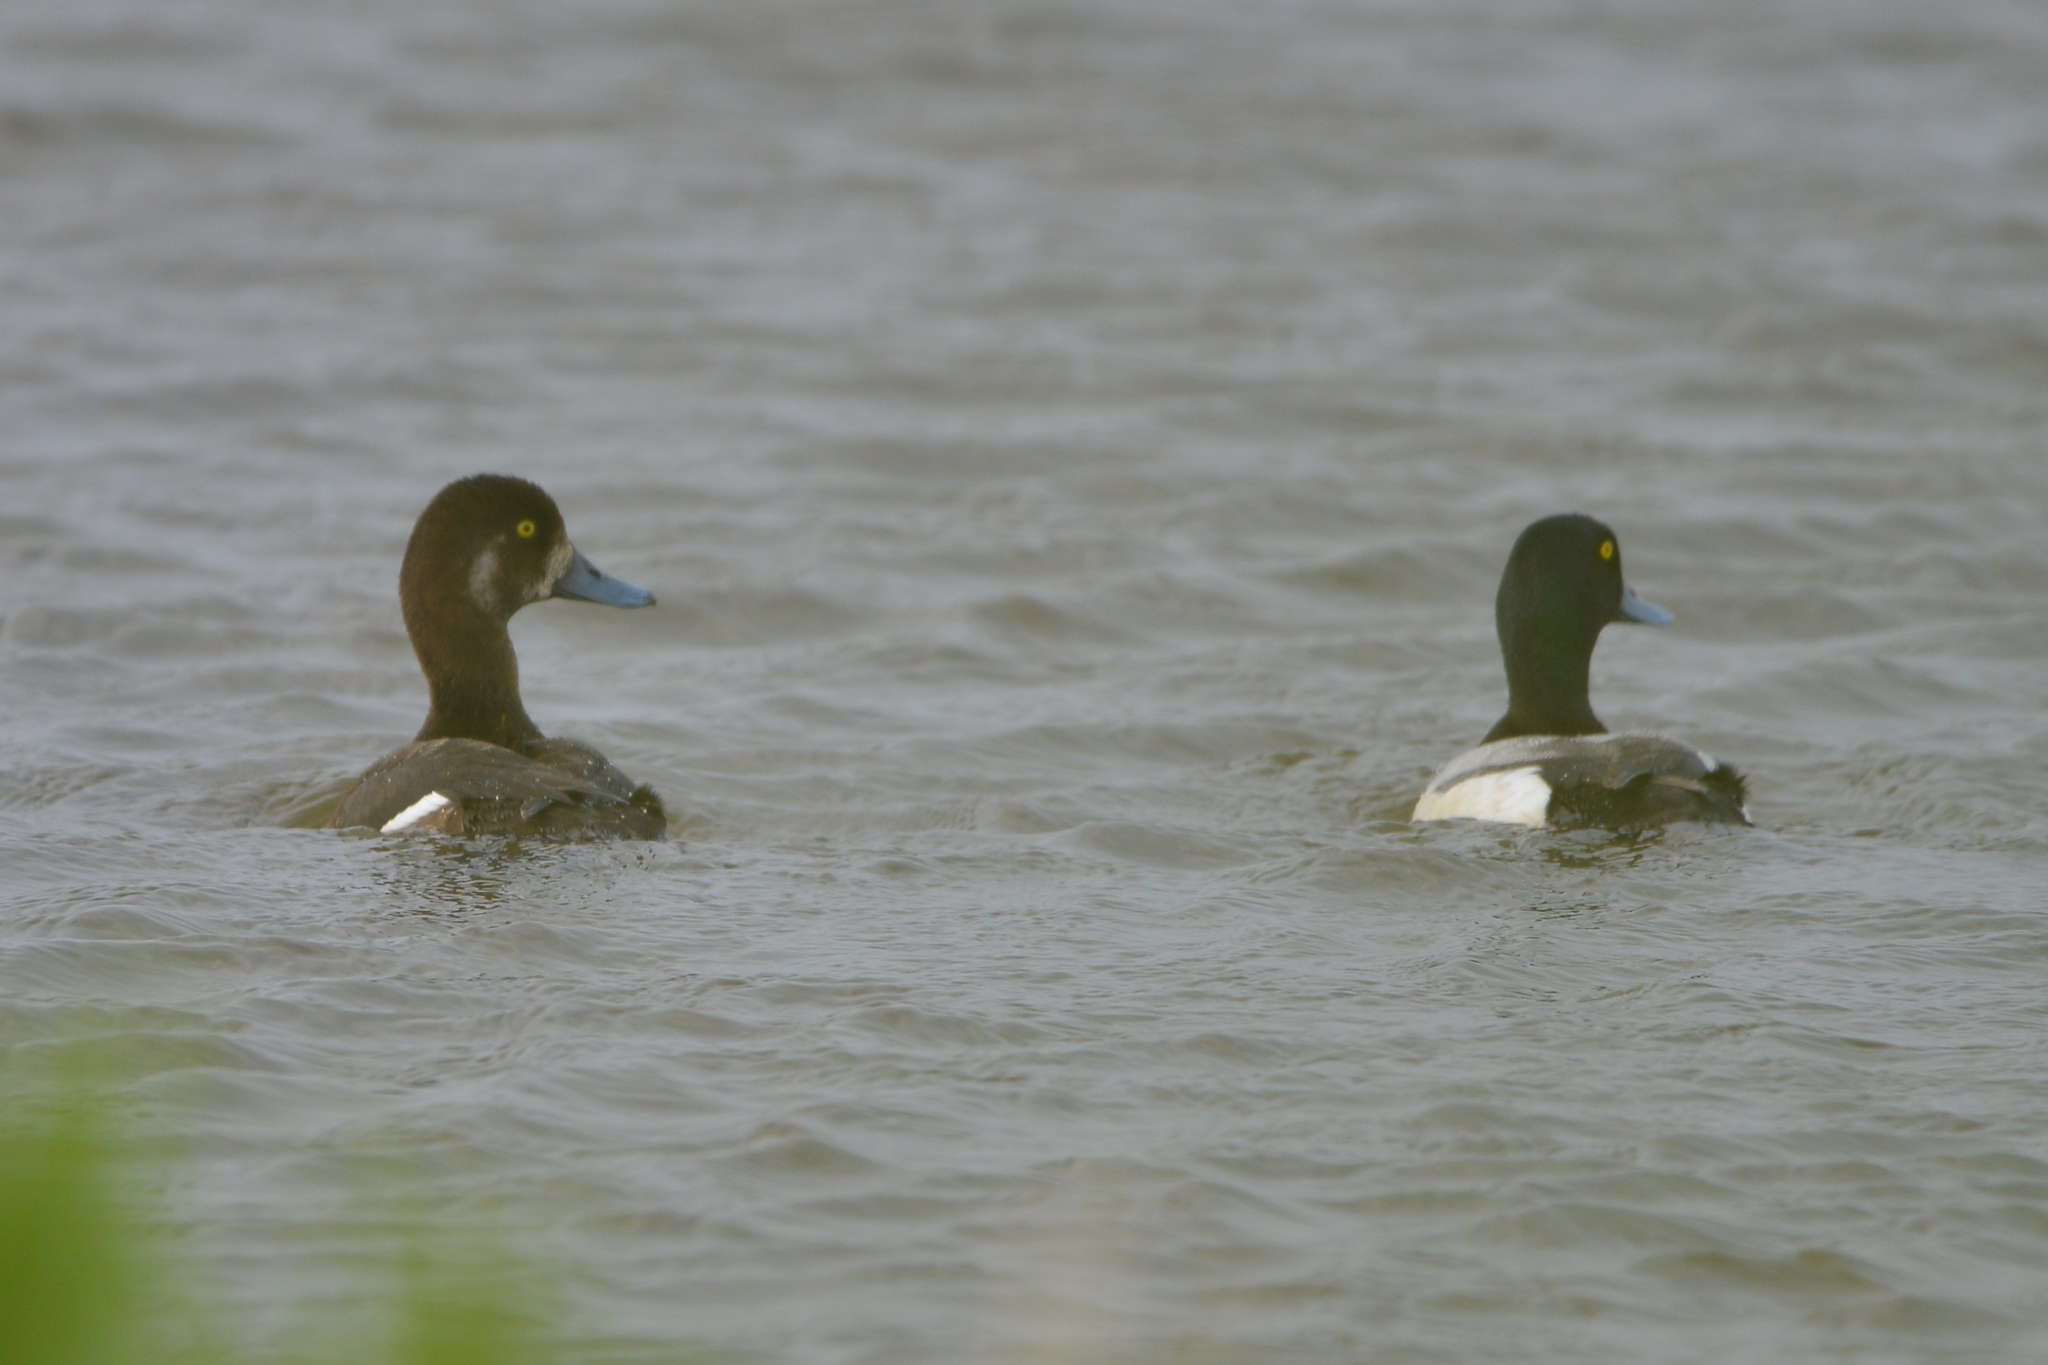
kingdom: Animalia
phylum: Chordata
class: Aves
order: Anseriformes
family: Anatidae
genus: Aythya
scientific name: Aythya marila
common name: Greater scaup
